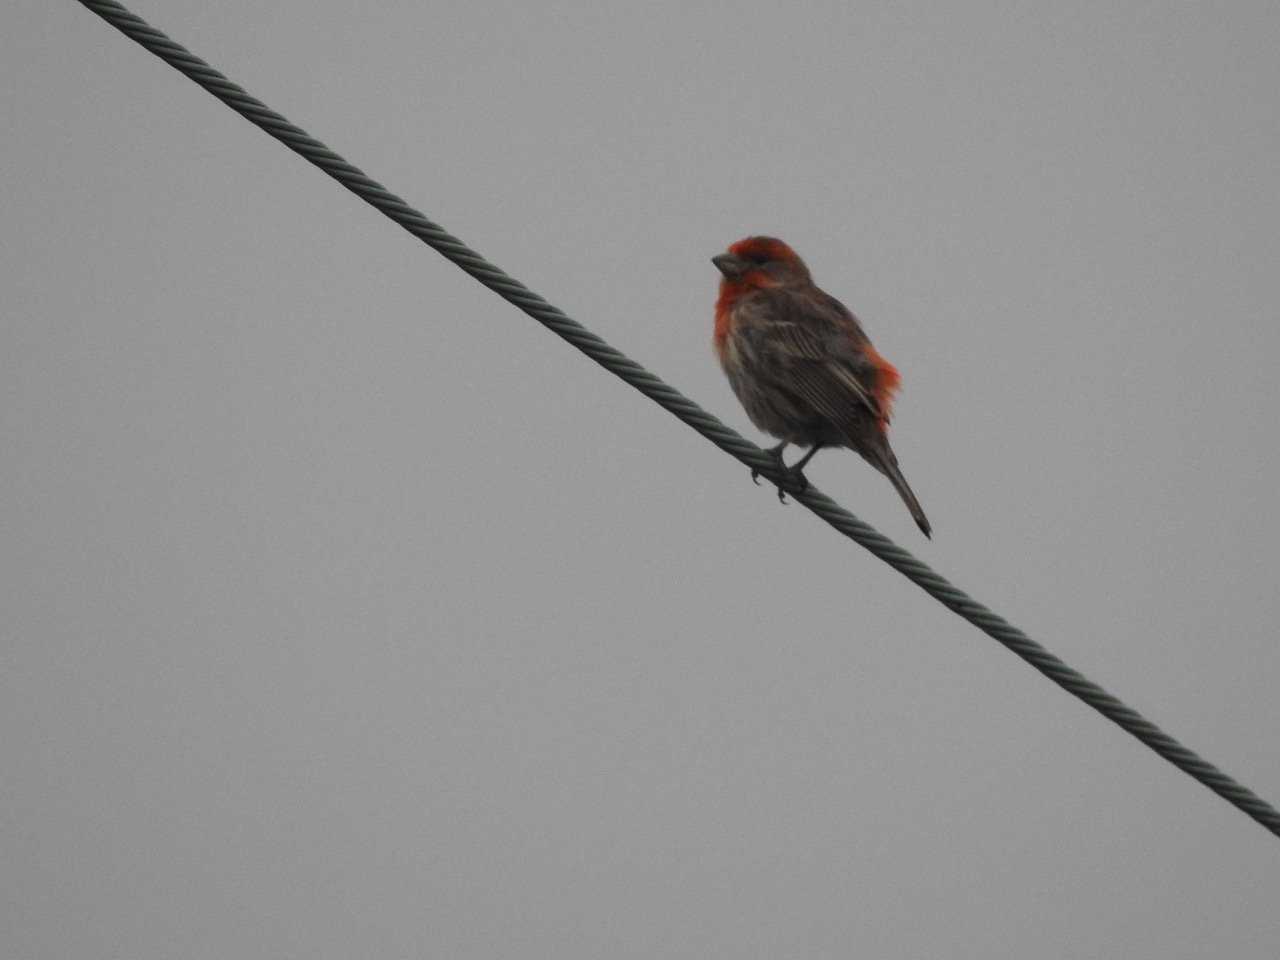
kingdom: Animalia
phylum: Chordata
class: Aves
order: Passeriformes
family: Fringillidae
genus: Haemorhous
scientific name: Haemorhous mexicanus
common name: House finch
